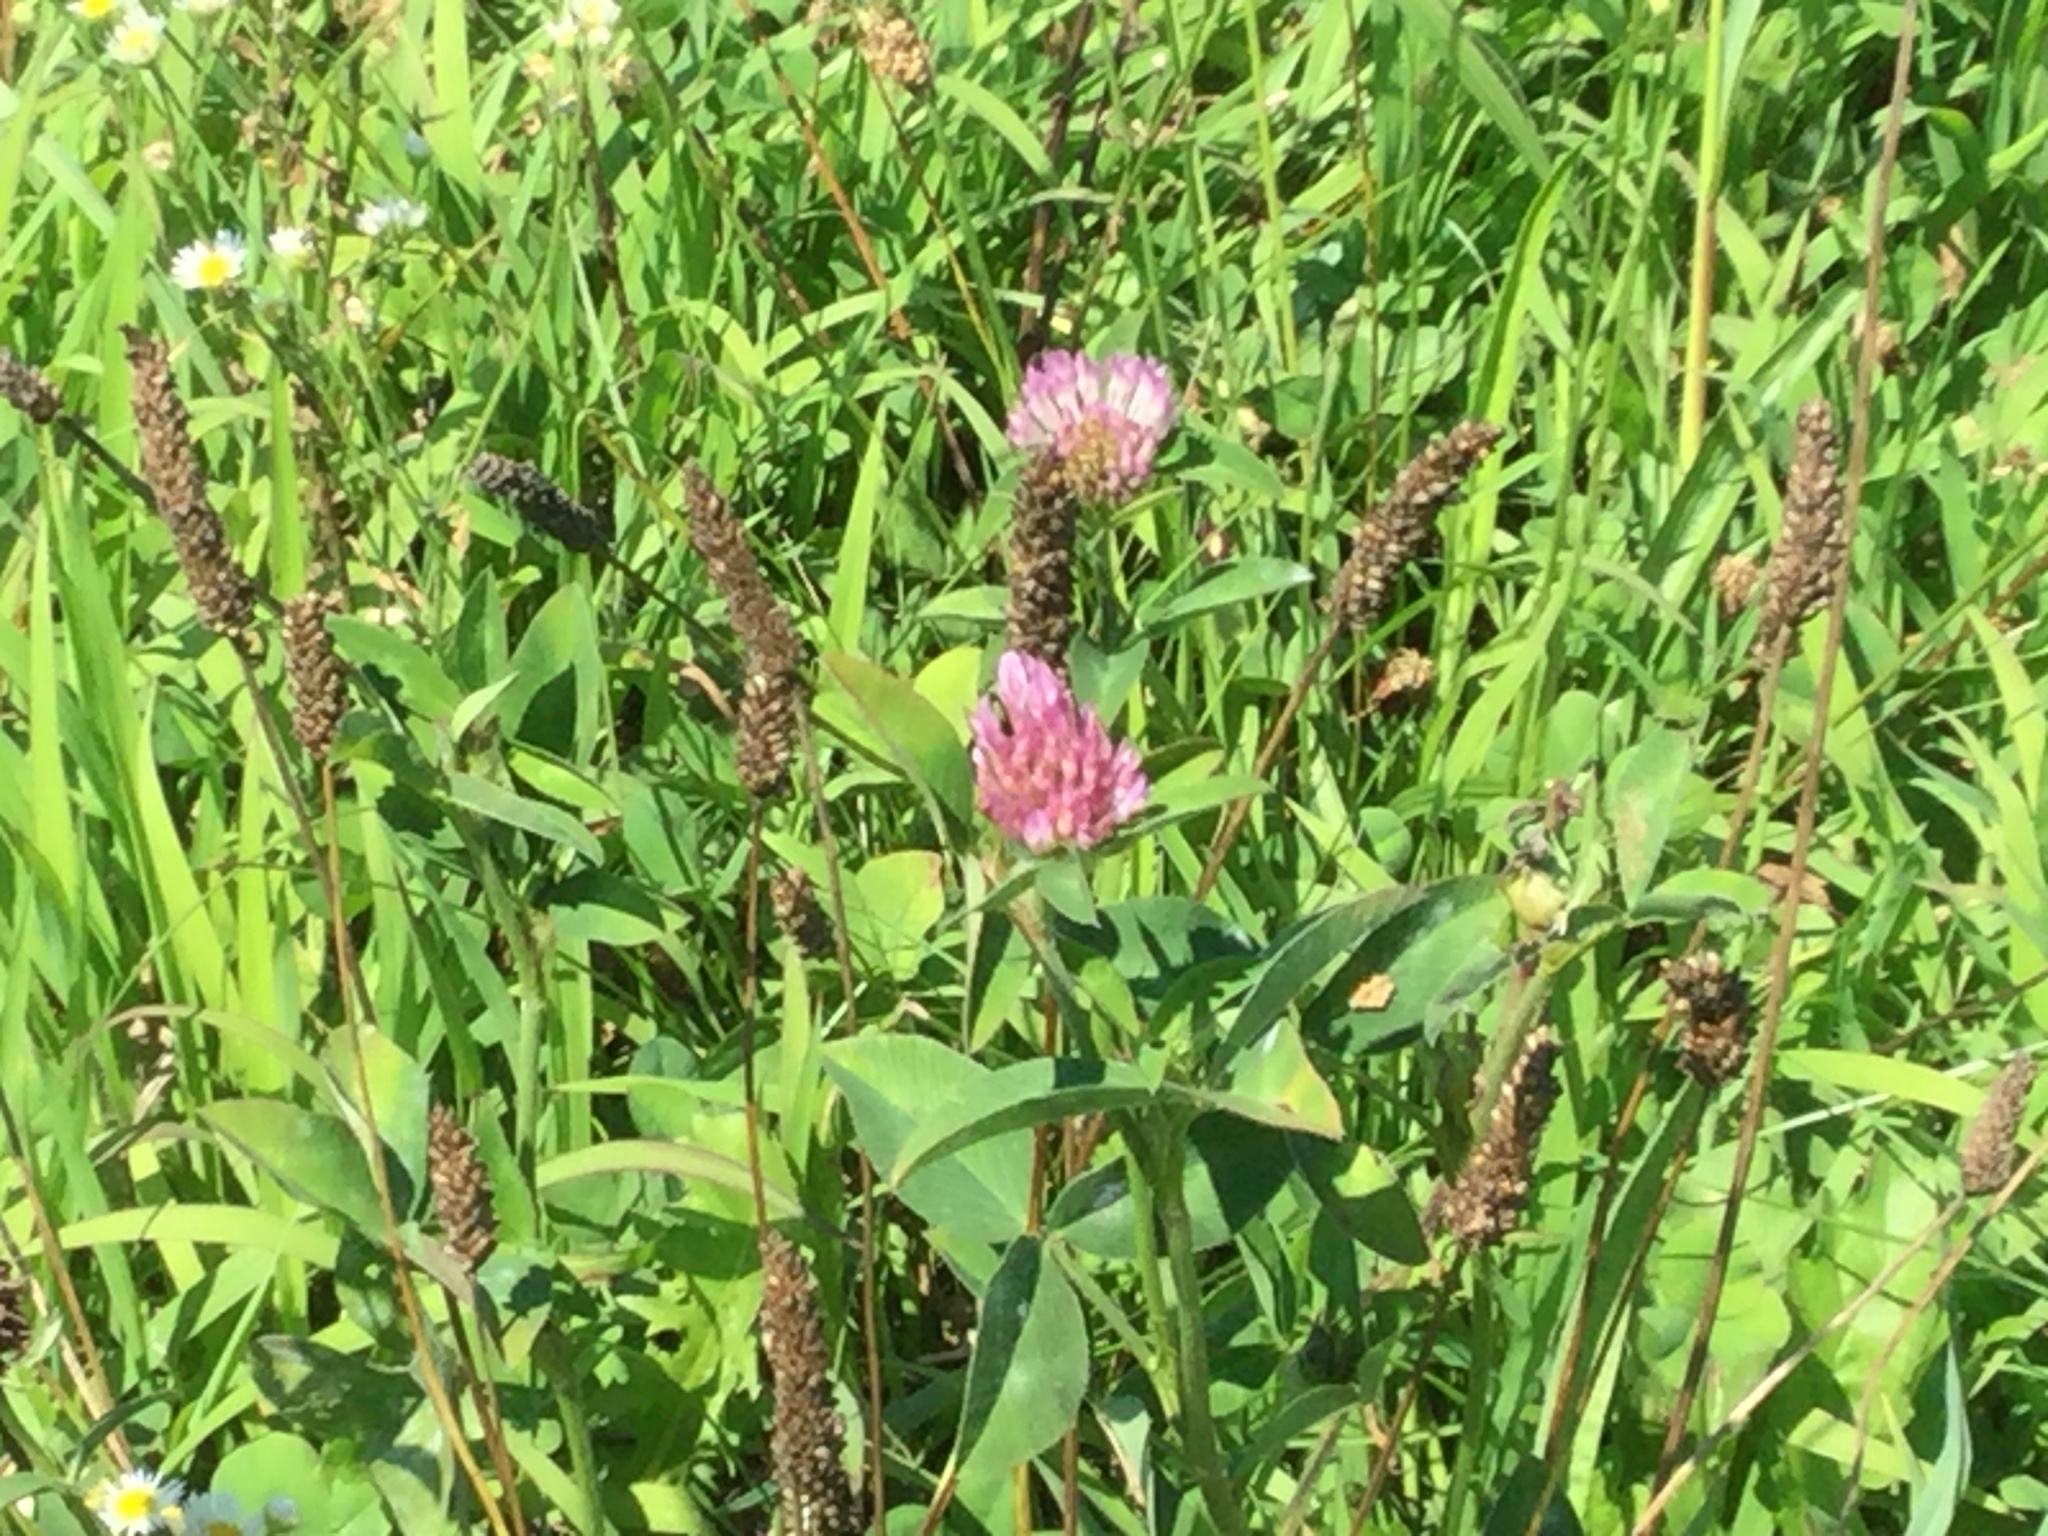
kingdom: Plantae
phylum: Tracheophyta
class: Magnoliopsida
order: Fabales
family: Fabaceae
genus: Trifolium
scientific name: Trifolium pratense
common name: Red clover
